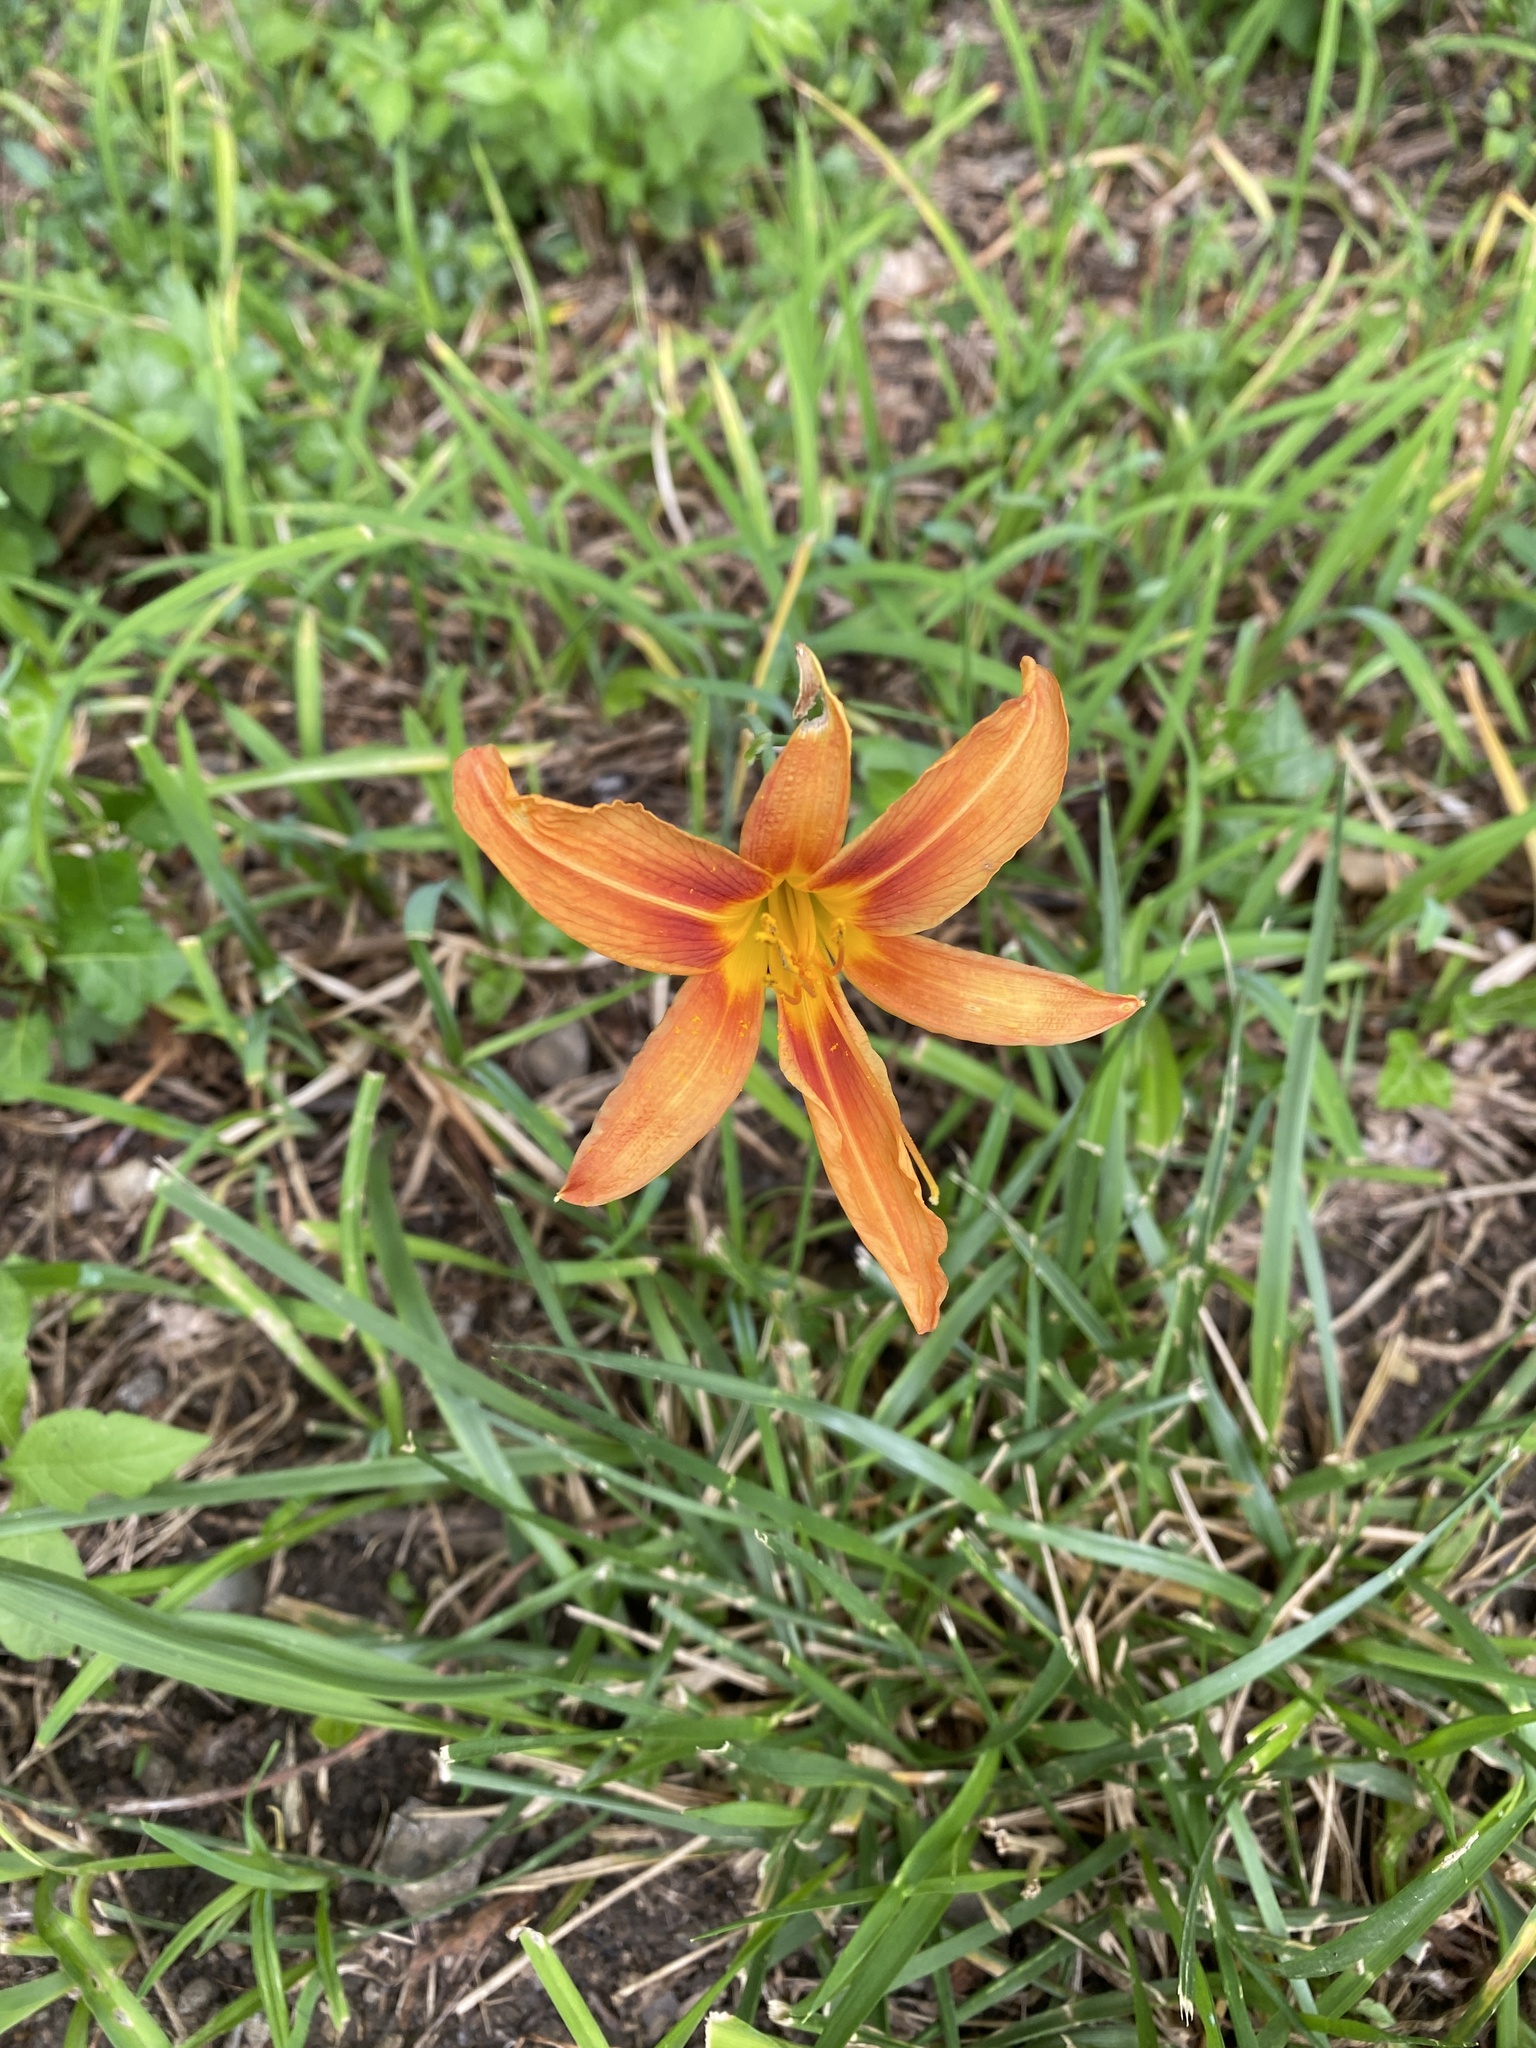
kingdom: Plantae
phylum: Tracheophyta
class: Liliopsida
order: Asparagales
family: Asphodelaceae
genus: Hemerocallis
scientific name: Hemerocallis fulva
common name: Orange day-lily
